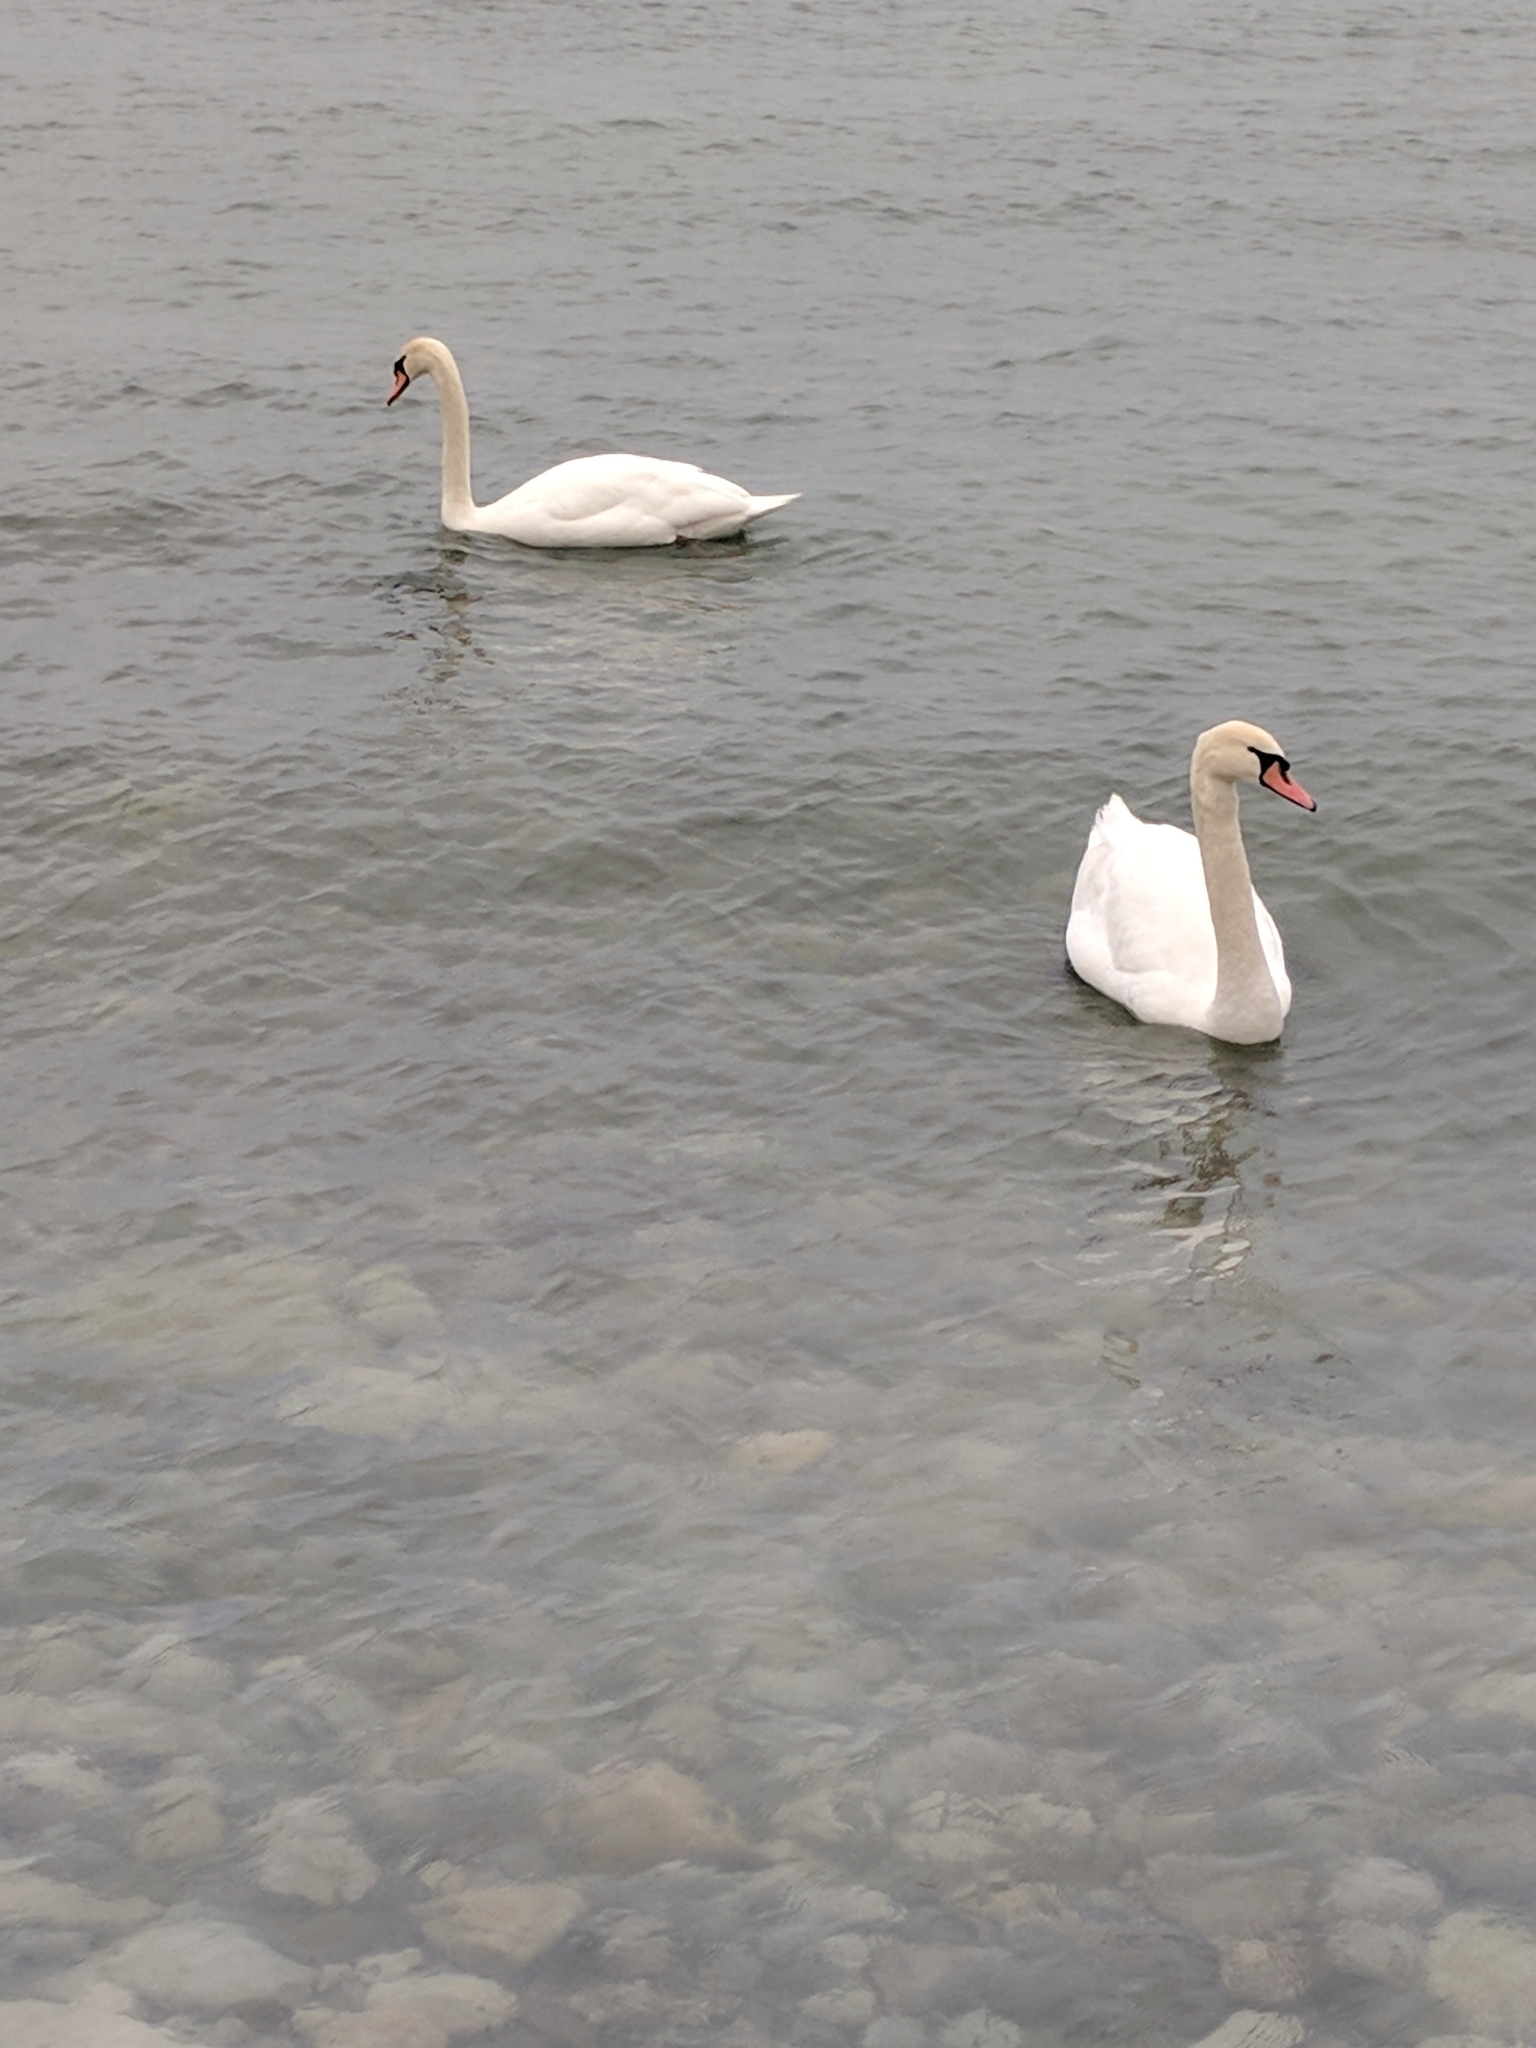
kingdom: Animalia
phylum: Chordata
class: Aves
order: Anseriformes
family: Anatidae
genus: Cygnus
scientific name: Cygnus olor
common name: Mute swan
